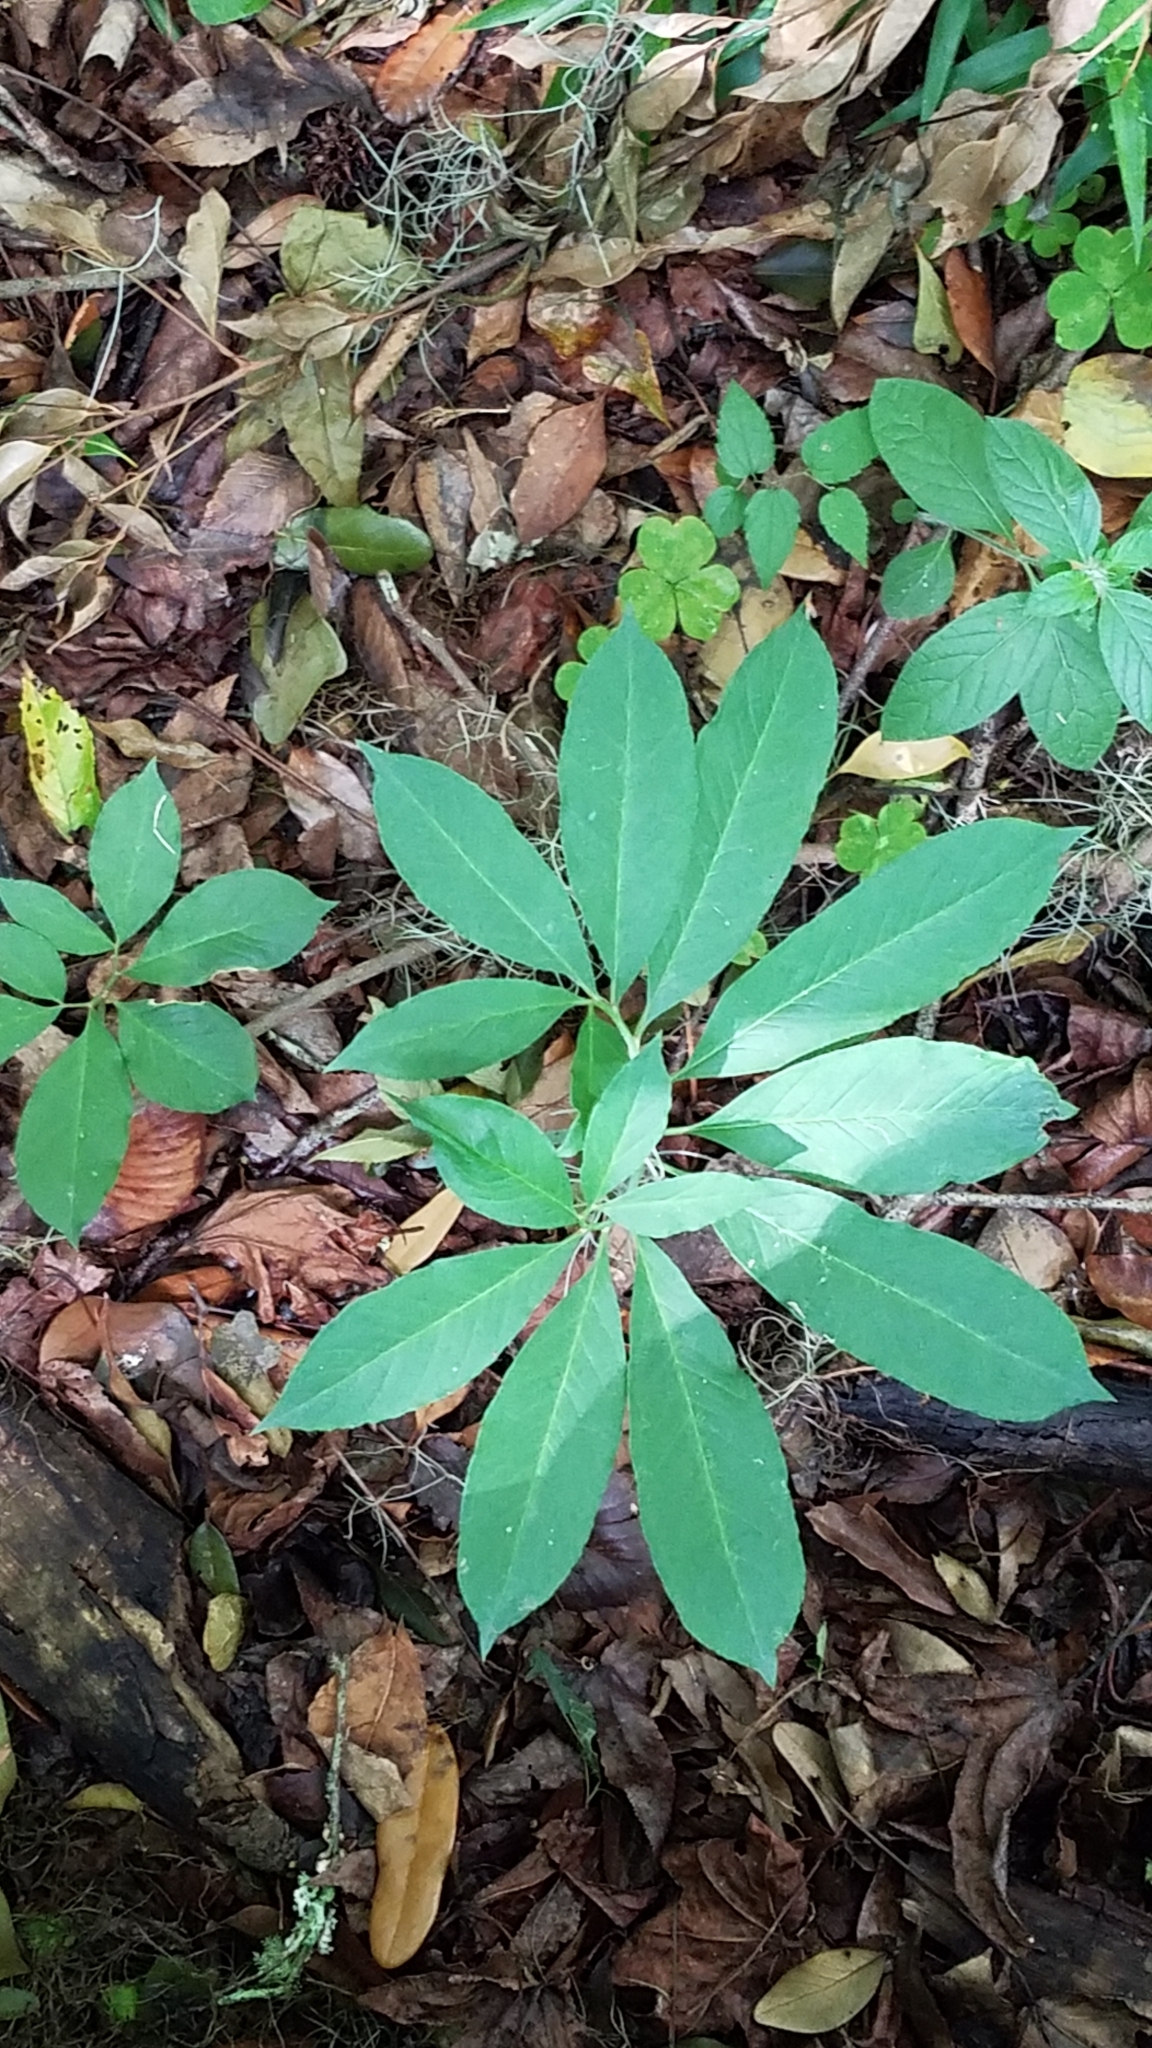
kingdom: Plantae
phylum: Tracheophyta
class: Liliopsida
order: Alismatales
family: Araceae
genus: Arisaema
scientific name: Arisaema dracontium
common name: Dragon-arum
